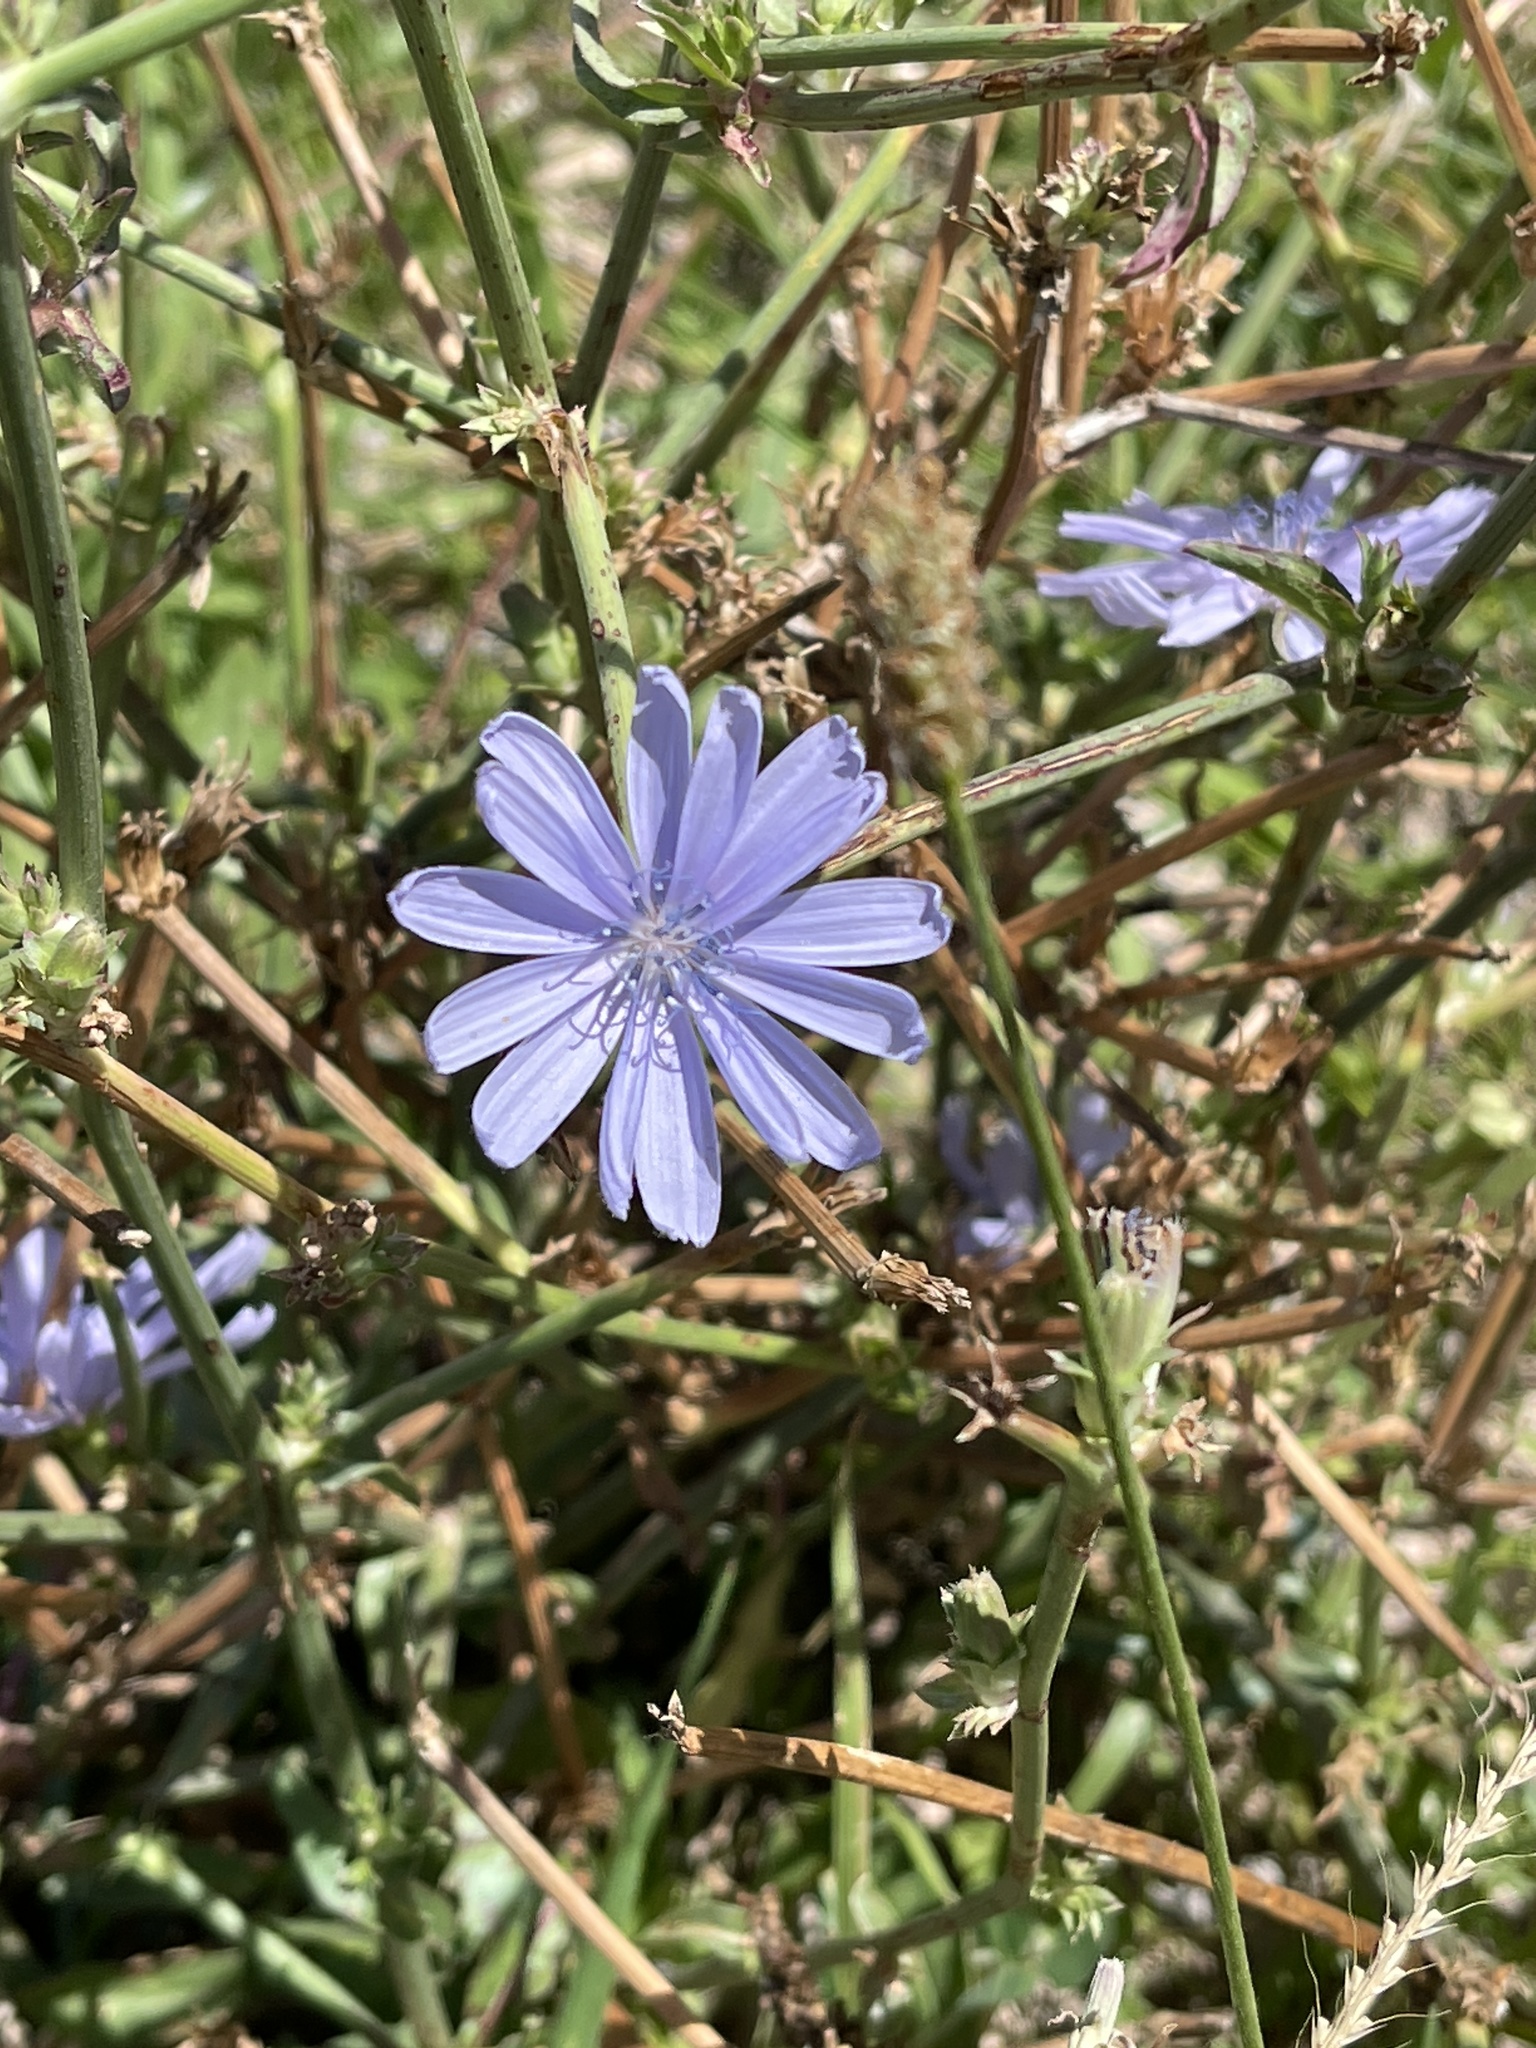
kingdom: Plantae
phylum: Tracheophyta
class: Magnoliopsida
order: Asterales
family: Asteraceae
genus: Cichorium
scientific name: Cichorium intybus
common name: Chicory
